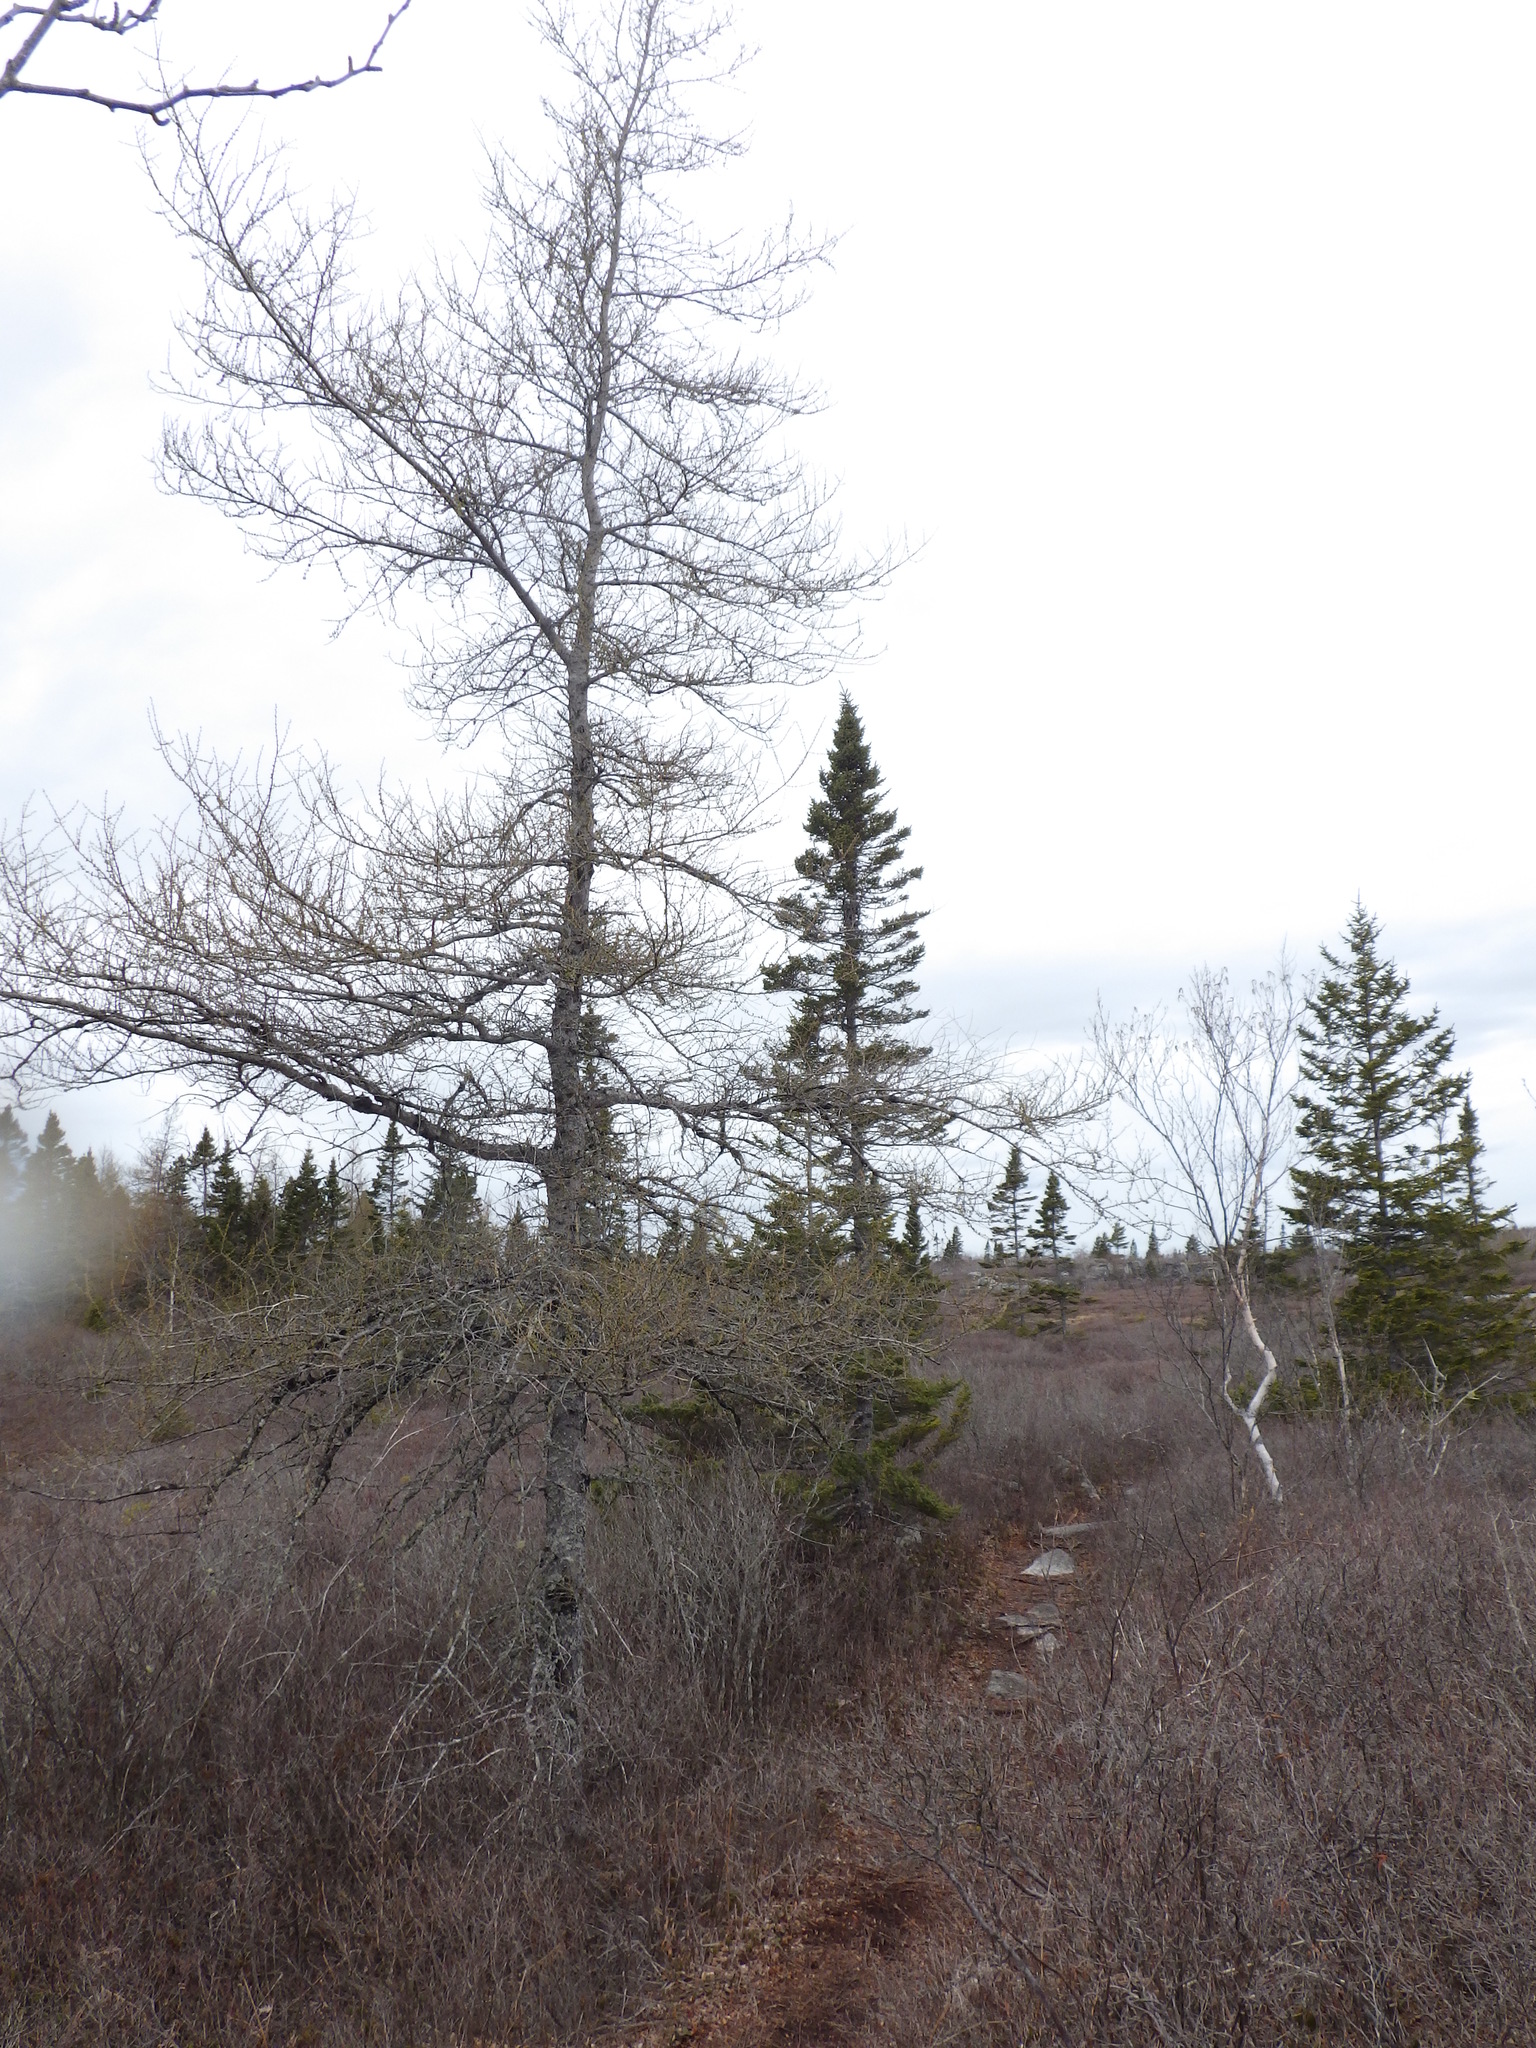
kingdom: Plantae
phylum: Tracheophyta
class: Pinopsida
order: Pinales
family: Pinaceae
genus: Larix
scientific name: Larix laricina
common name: American larch
